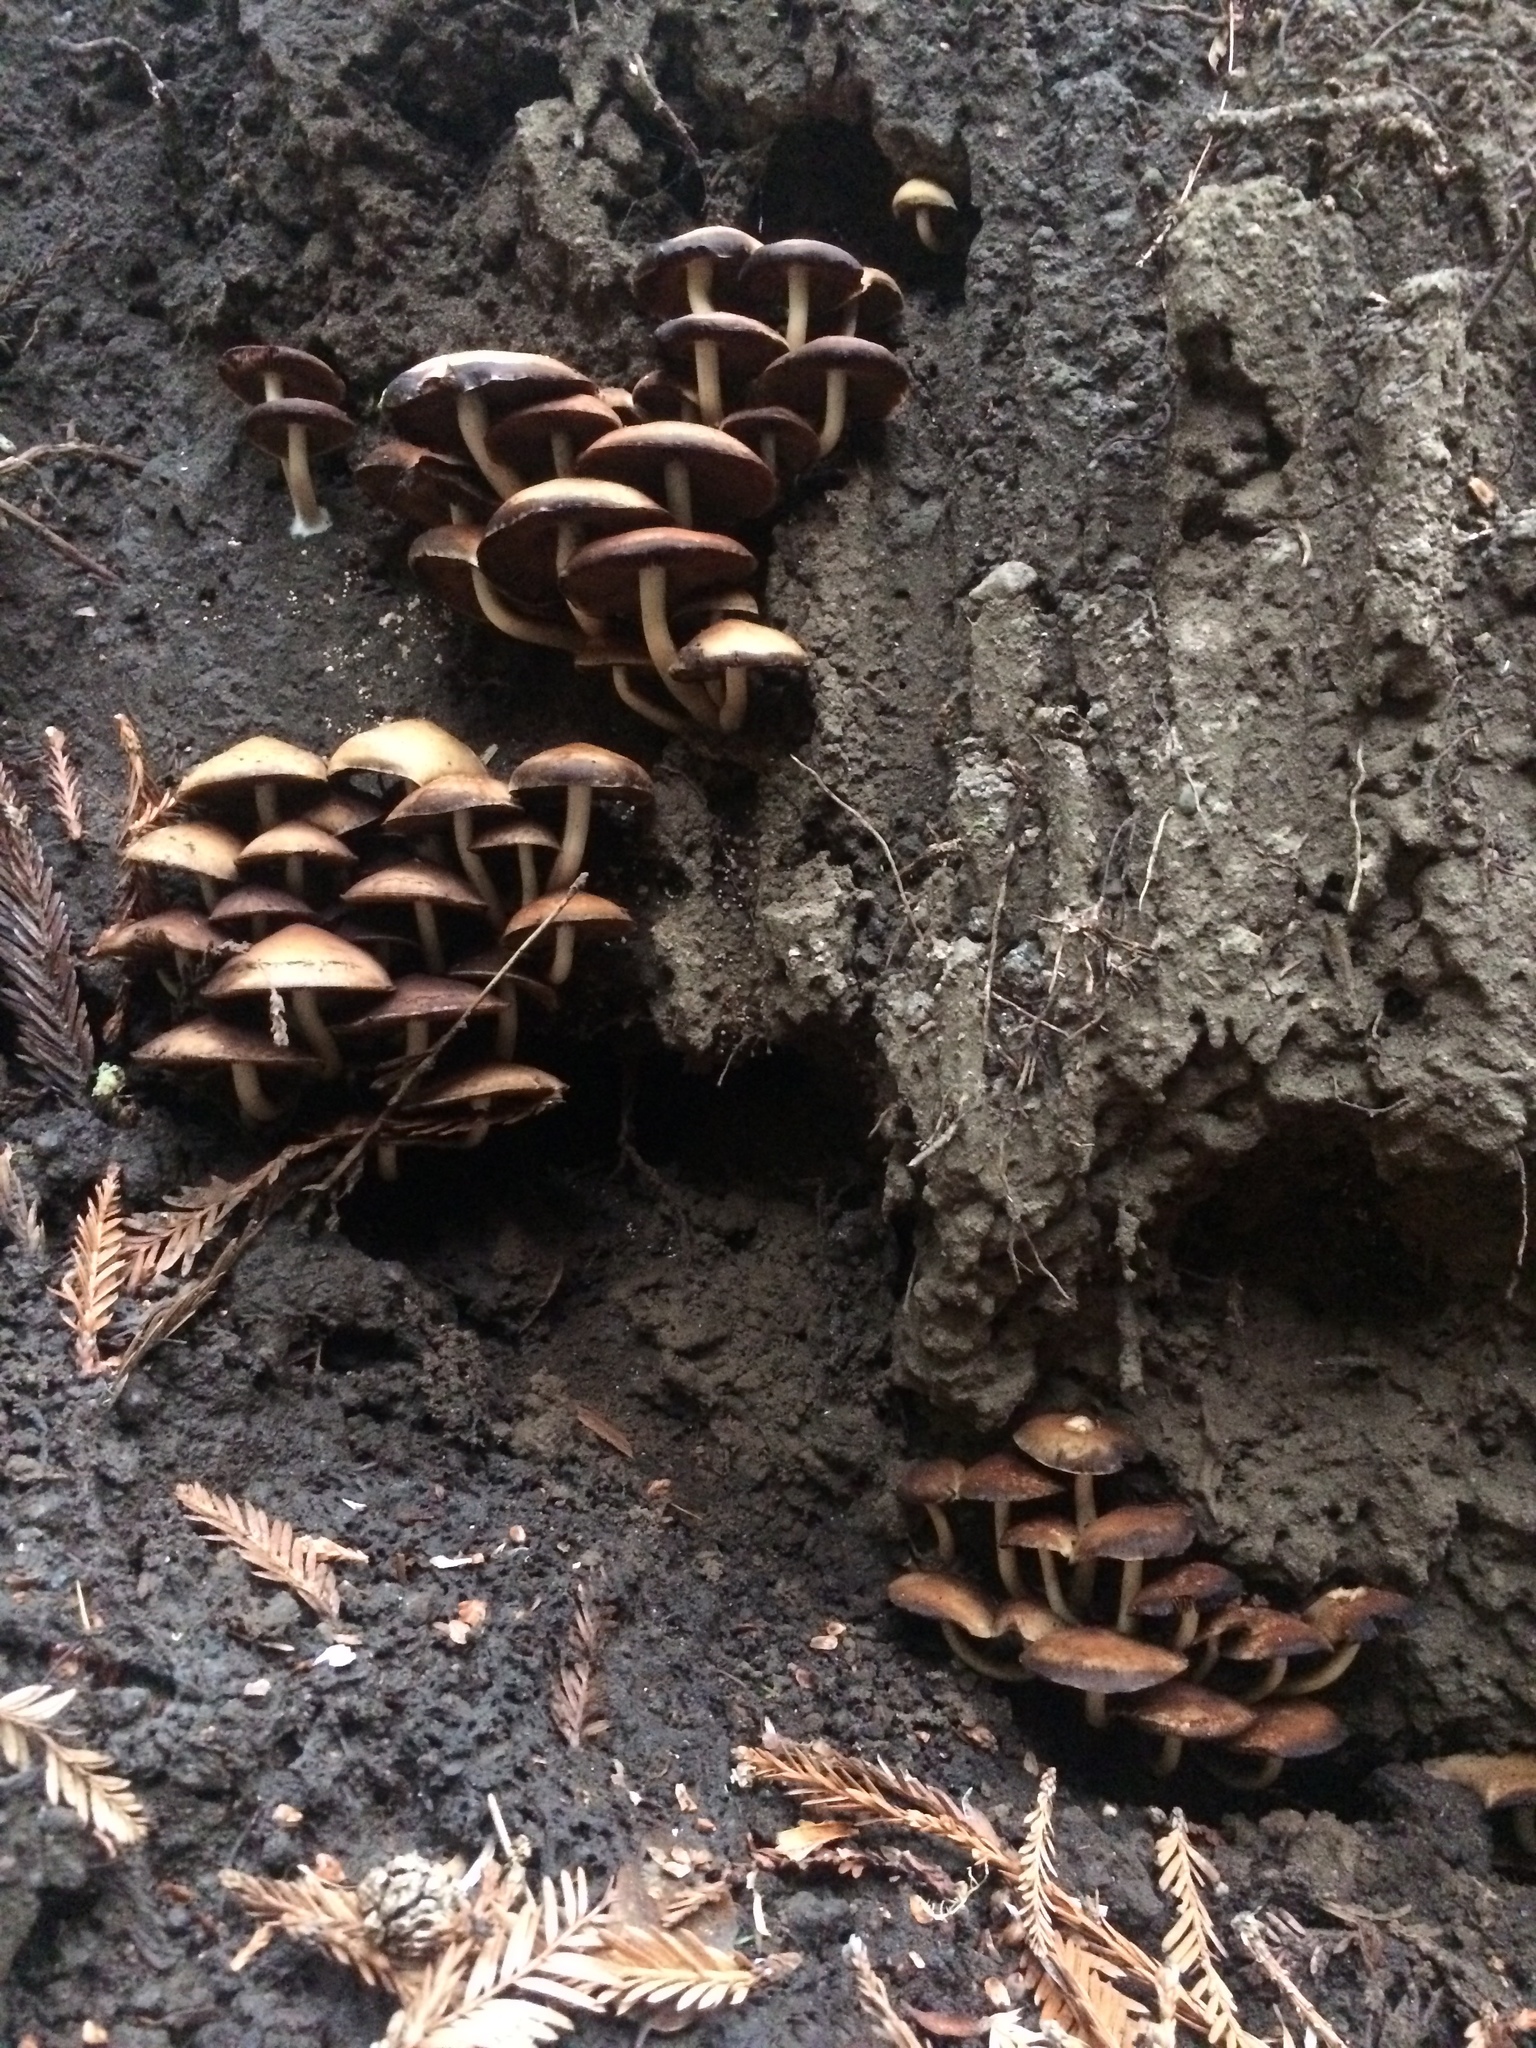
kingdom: Fungi
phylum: Basidiomycota
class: Agaricomycetes
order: Agaricales
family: Psathyrellaceae
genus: Psathyrella
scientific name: Psathyrella piluliformis
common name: Common stump brittlestem
